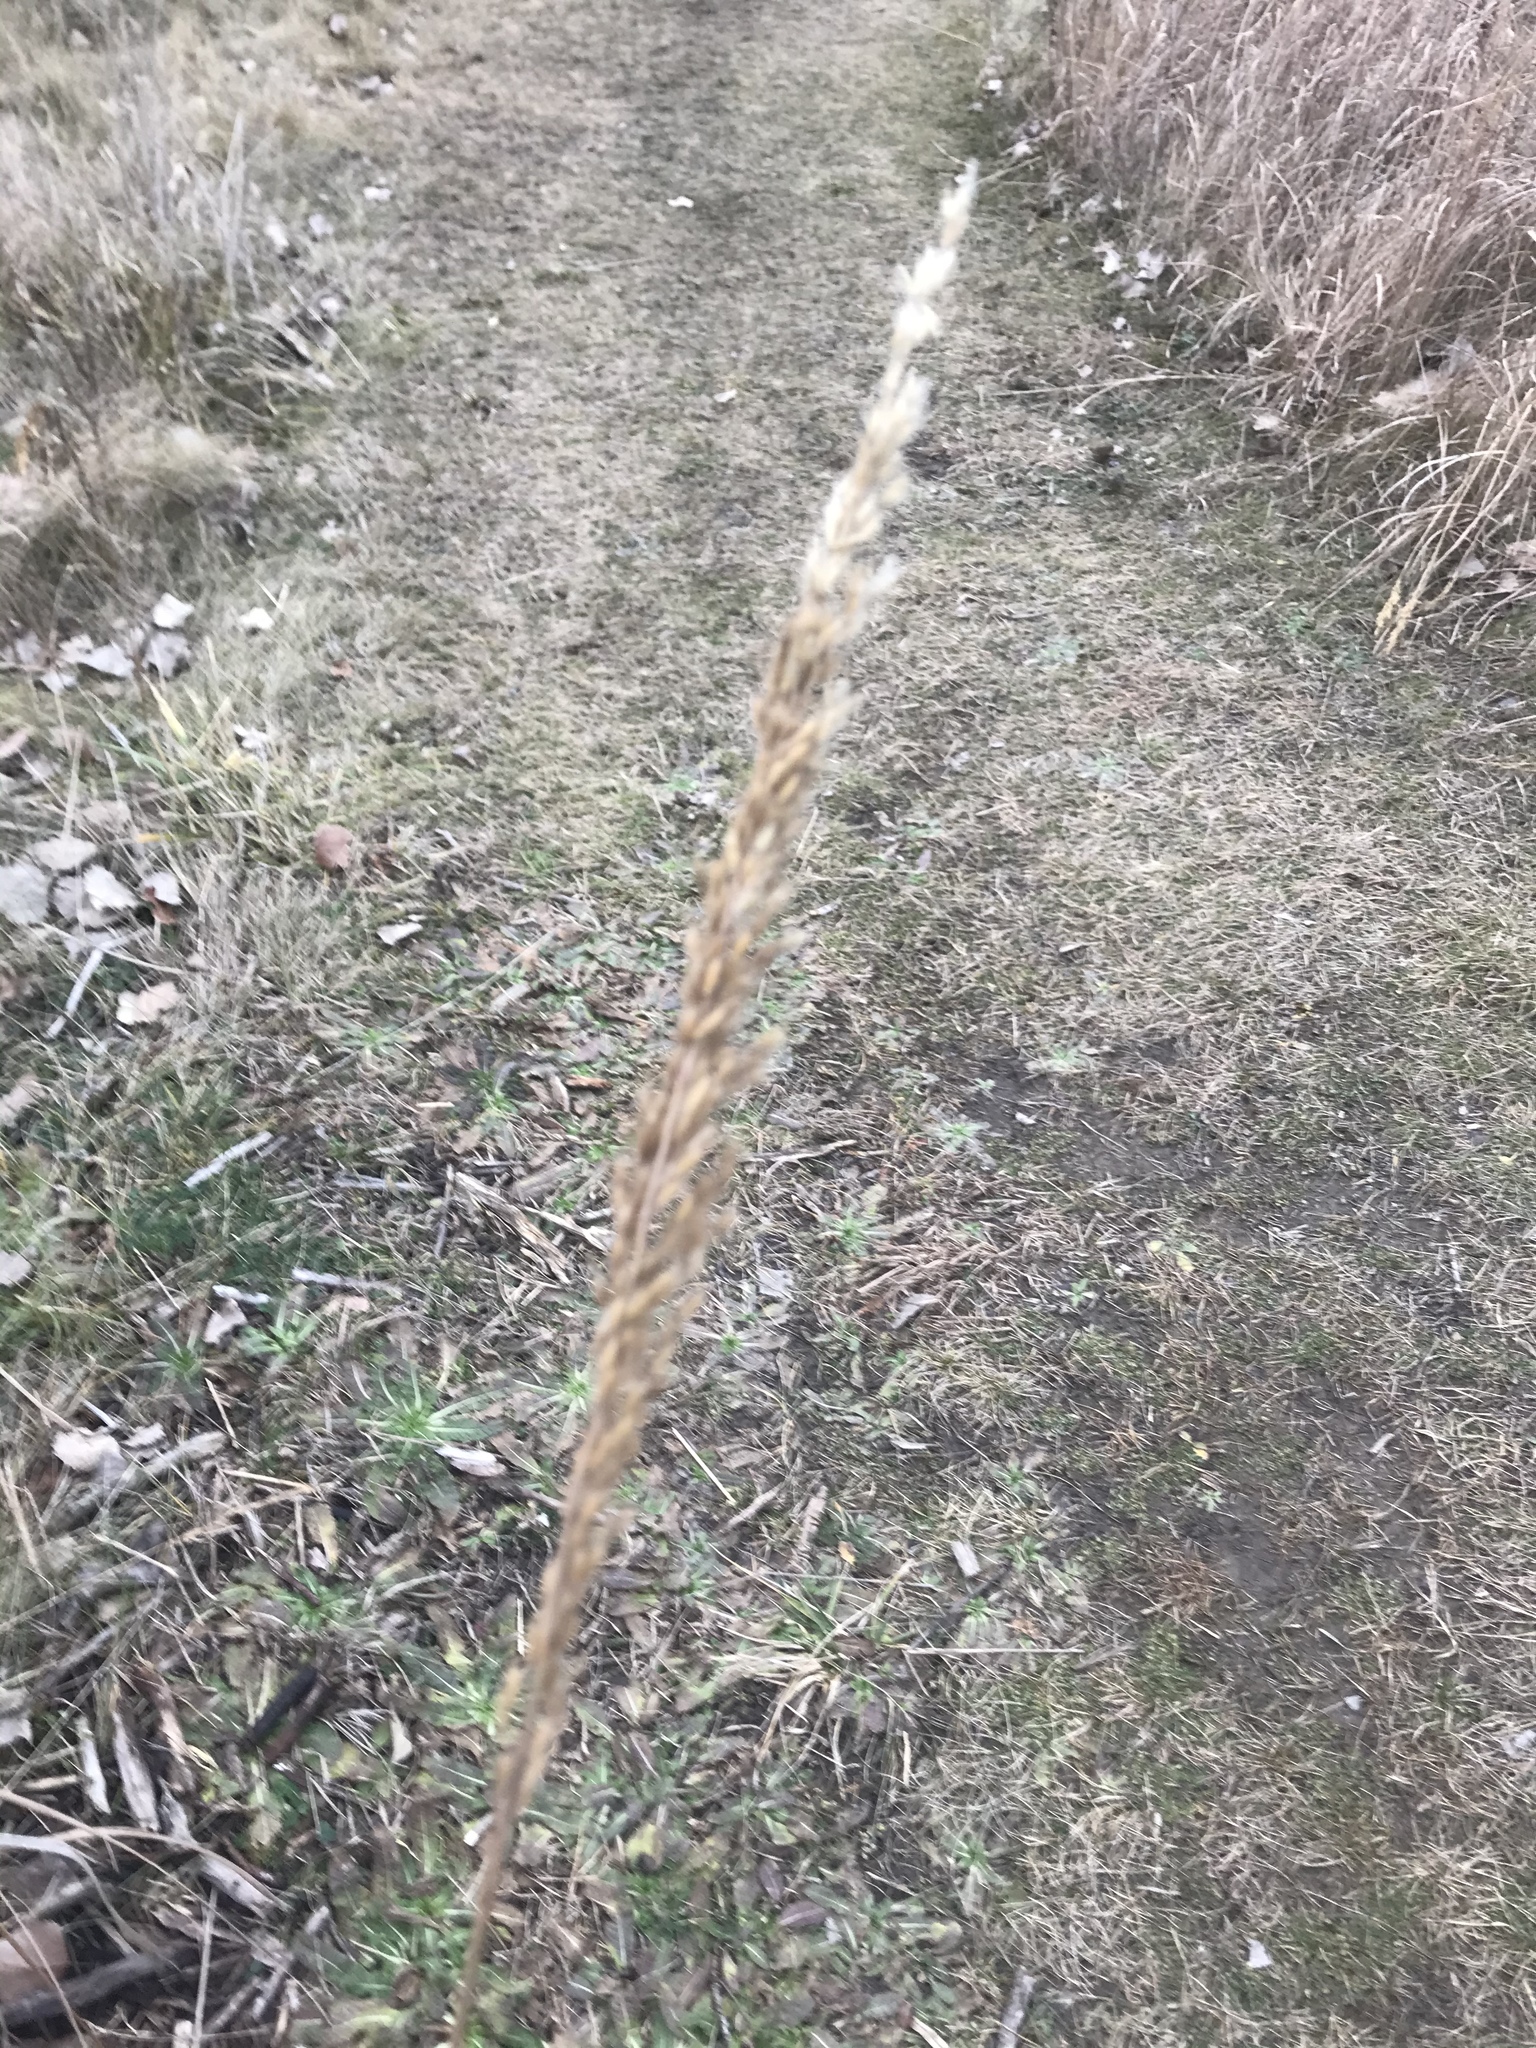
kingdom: Plantae
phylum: Tracheophyta
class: Liliopsida
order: Poales
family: Poaceae
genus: Sorghastrum
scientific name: Sorghastrum nutans
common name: Indian grass
